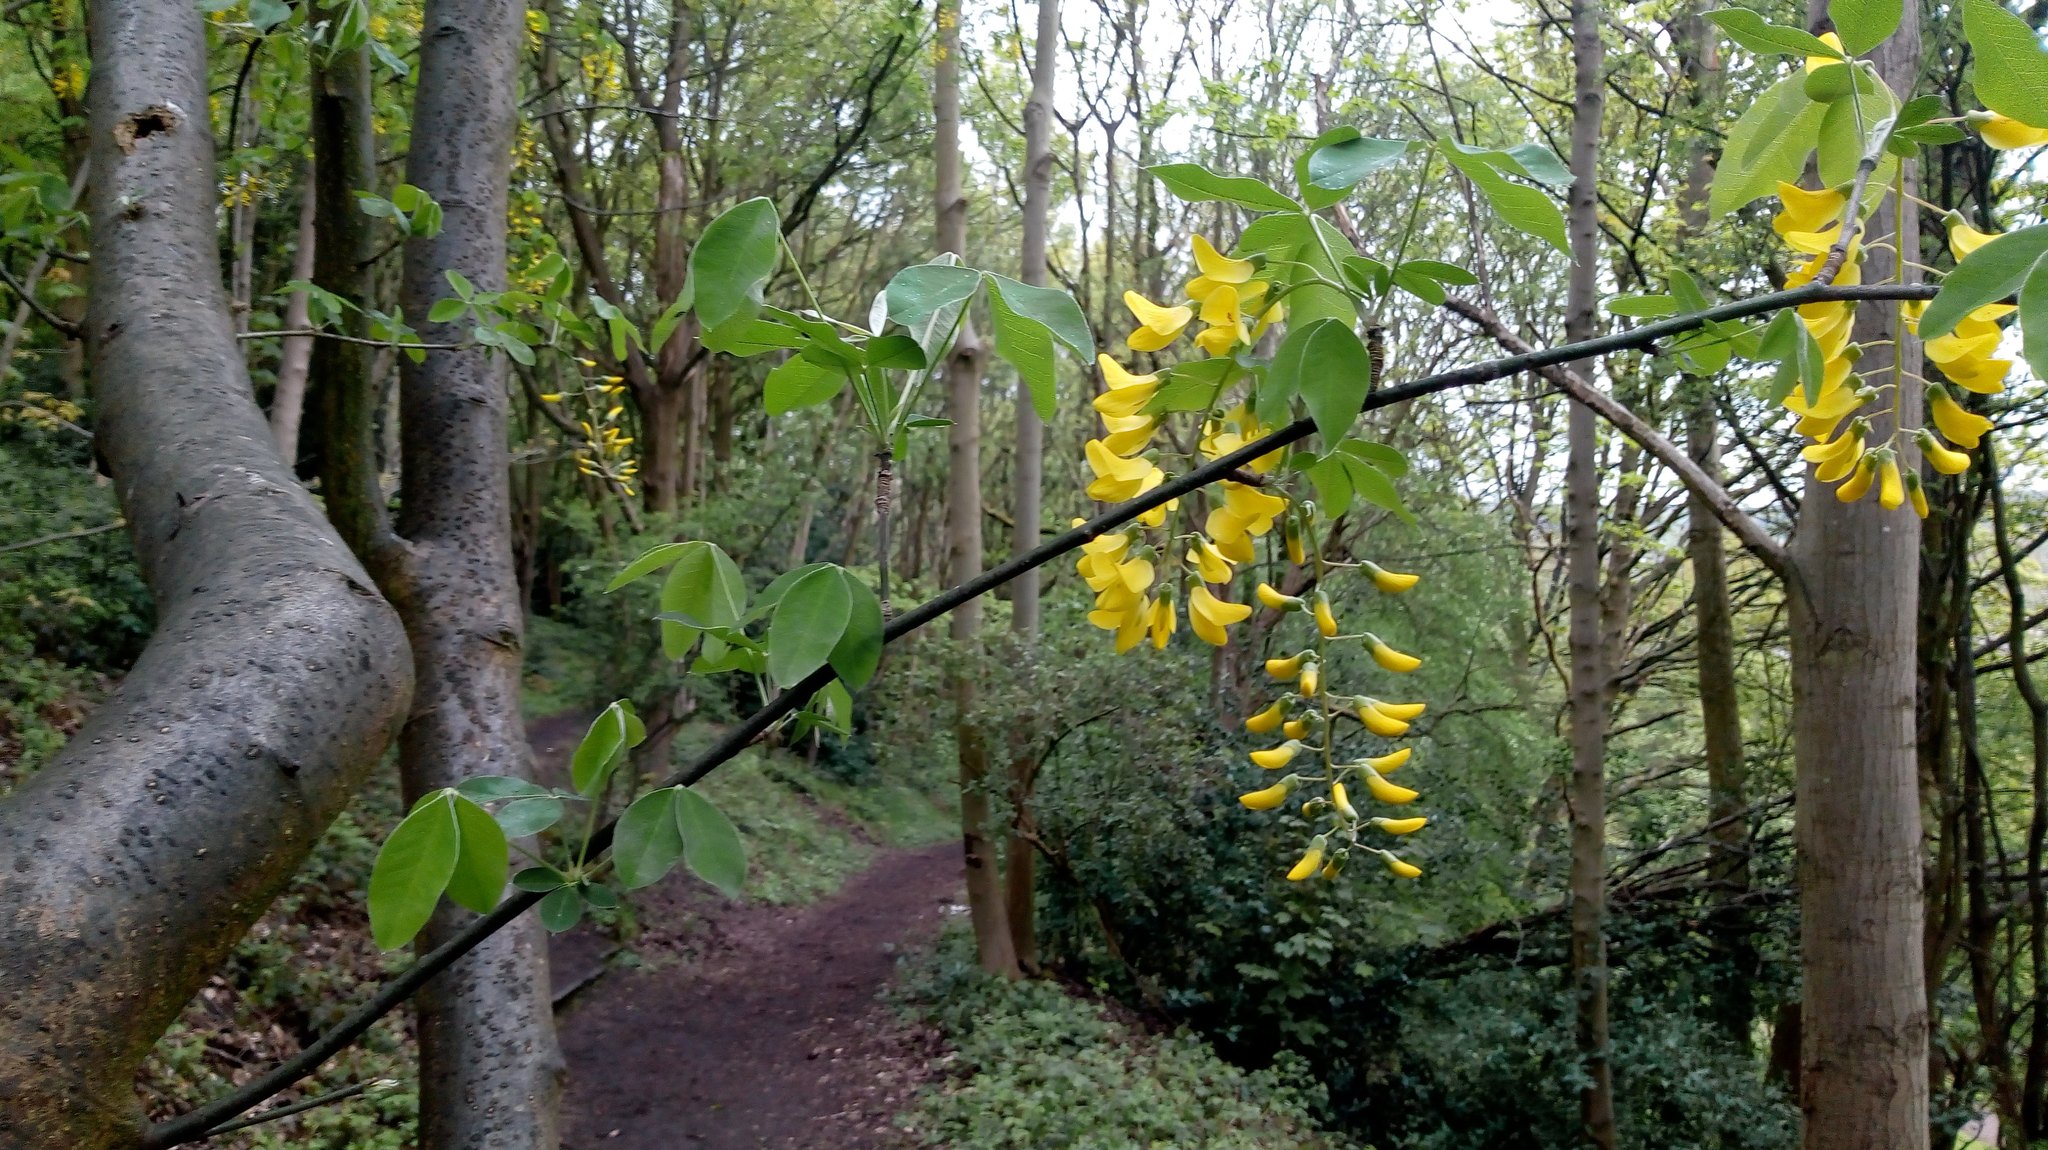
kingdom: Plantae
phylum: Tracheophyta
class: Magnoliopsida
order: Fabales
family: Fabaceae
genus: Laburnum
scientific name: Laburnum anagyroides
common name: Laburnum
